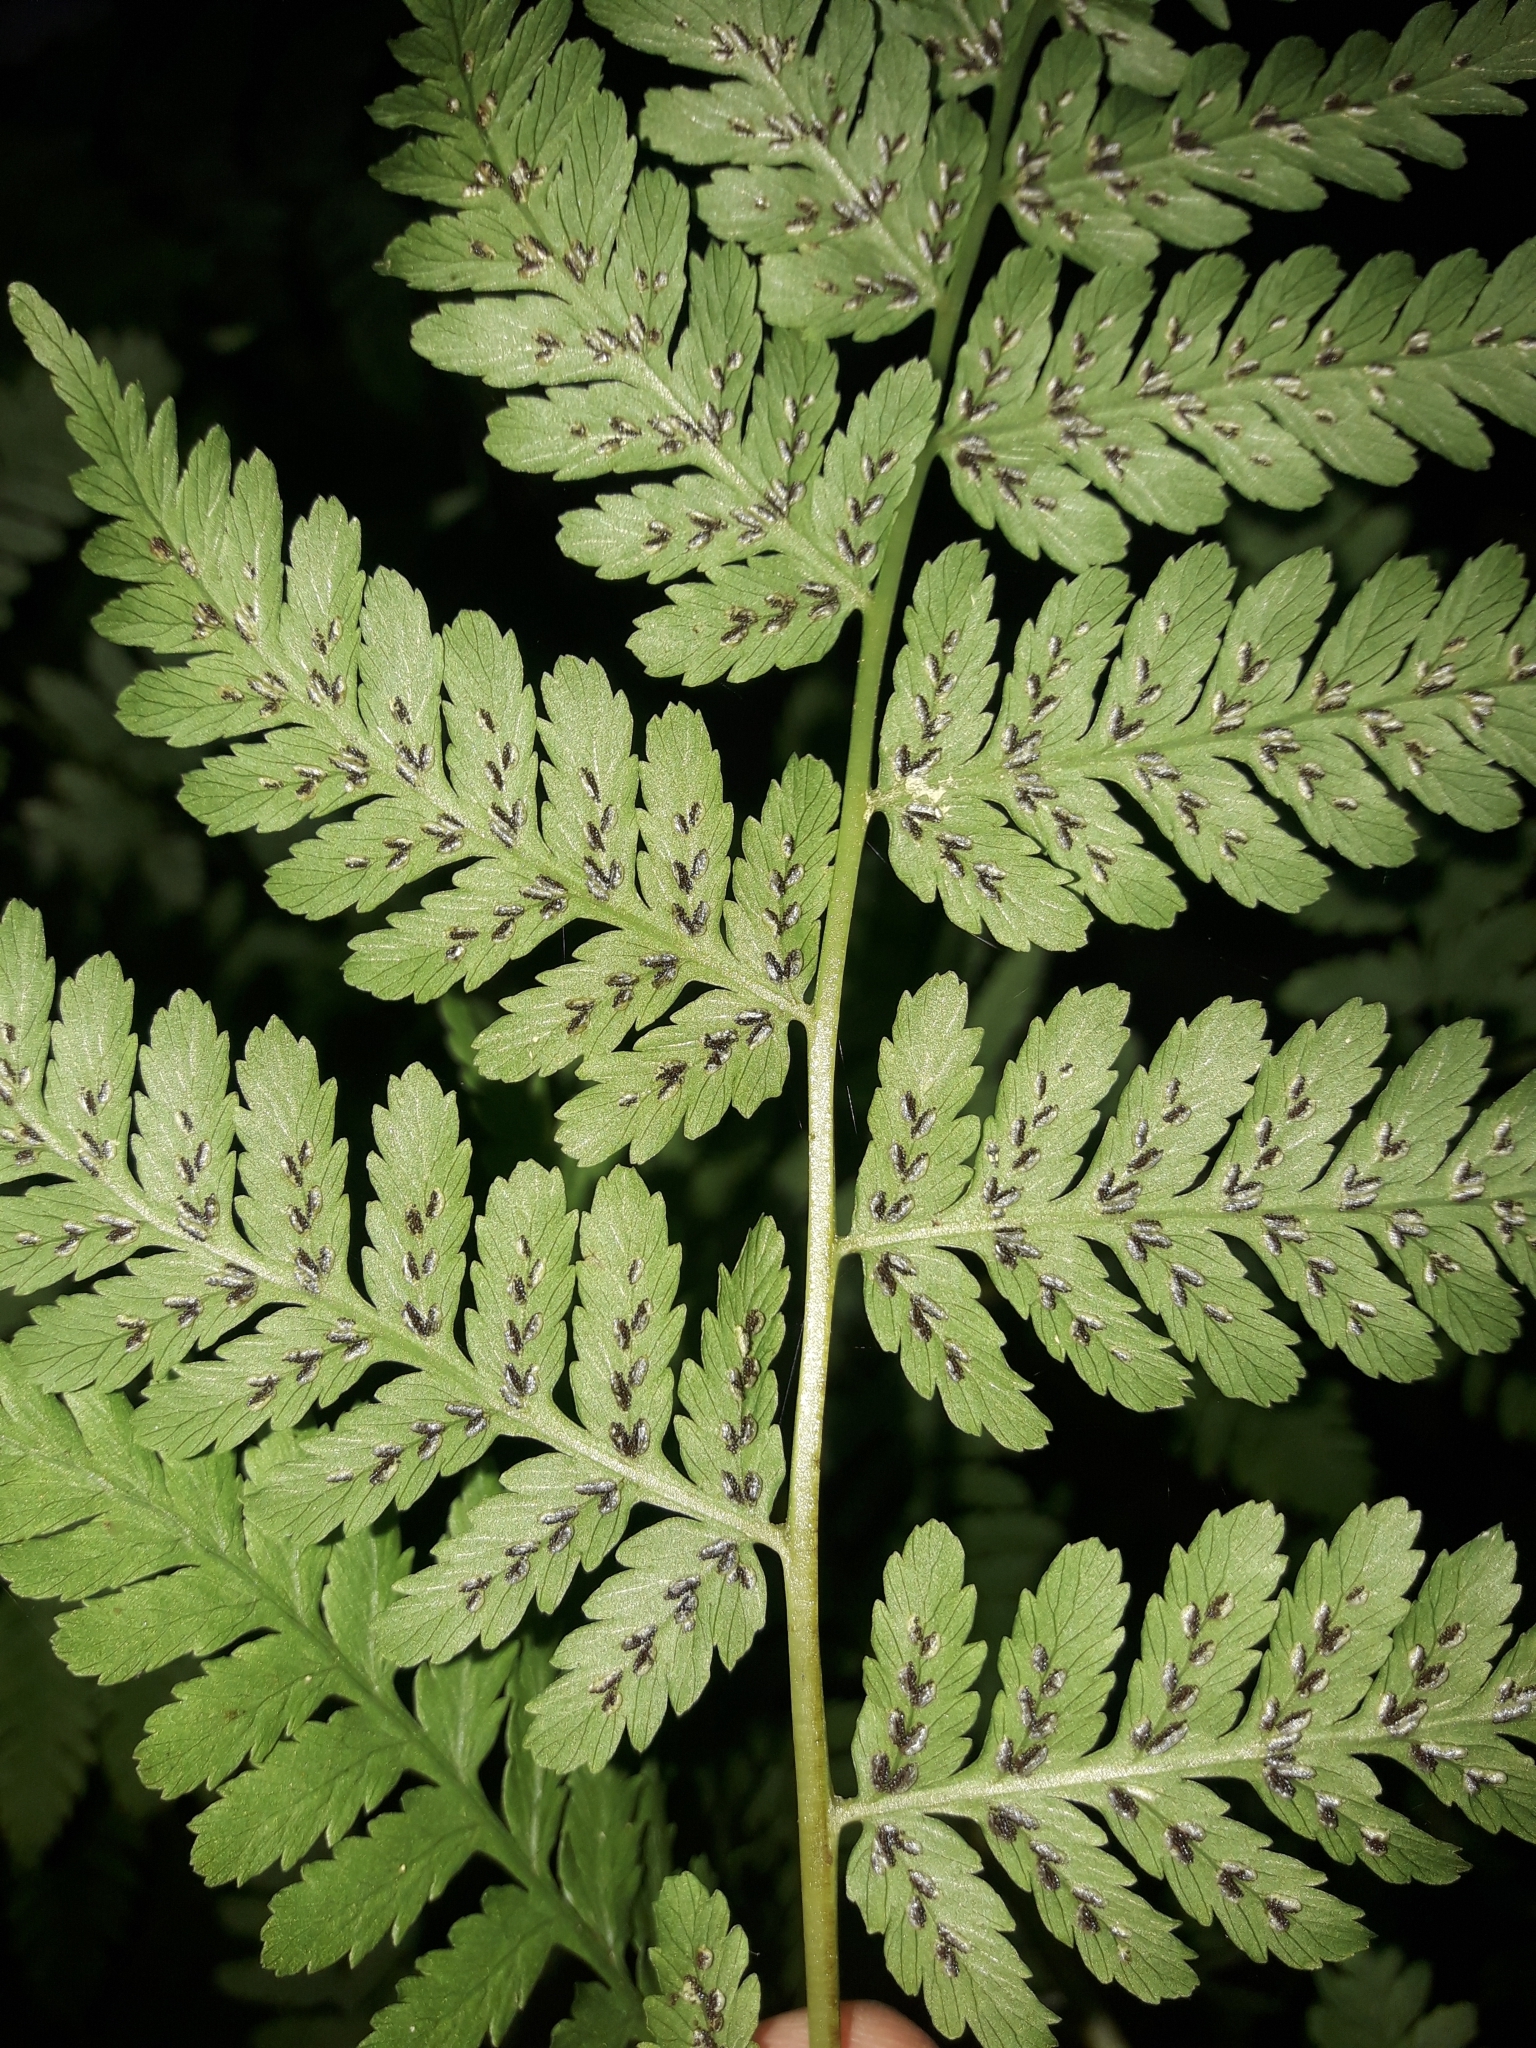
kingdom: Plantae
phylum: Tracheophyta
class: Polypodiopsida
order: Polypodiales
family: Athyriaceae
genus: Diplazium
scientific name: Diplazium australe
